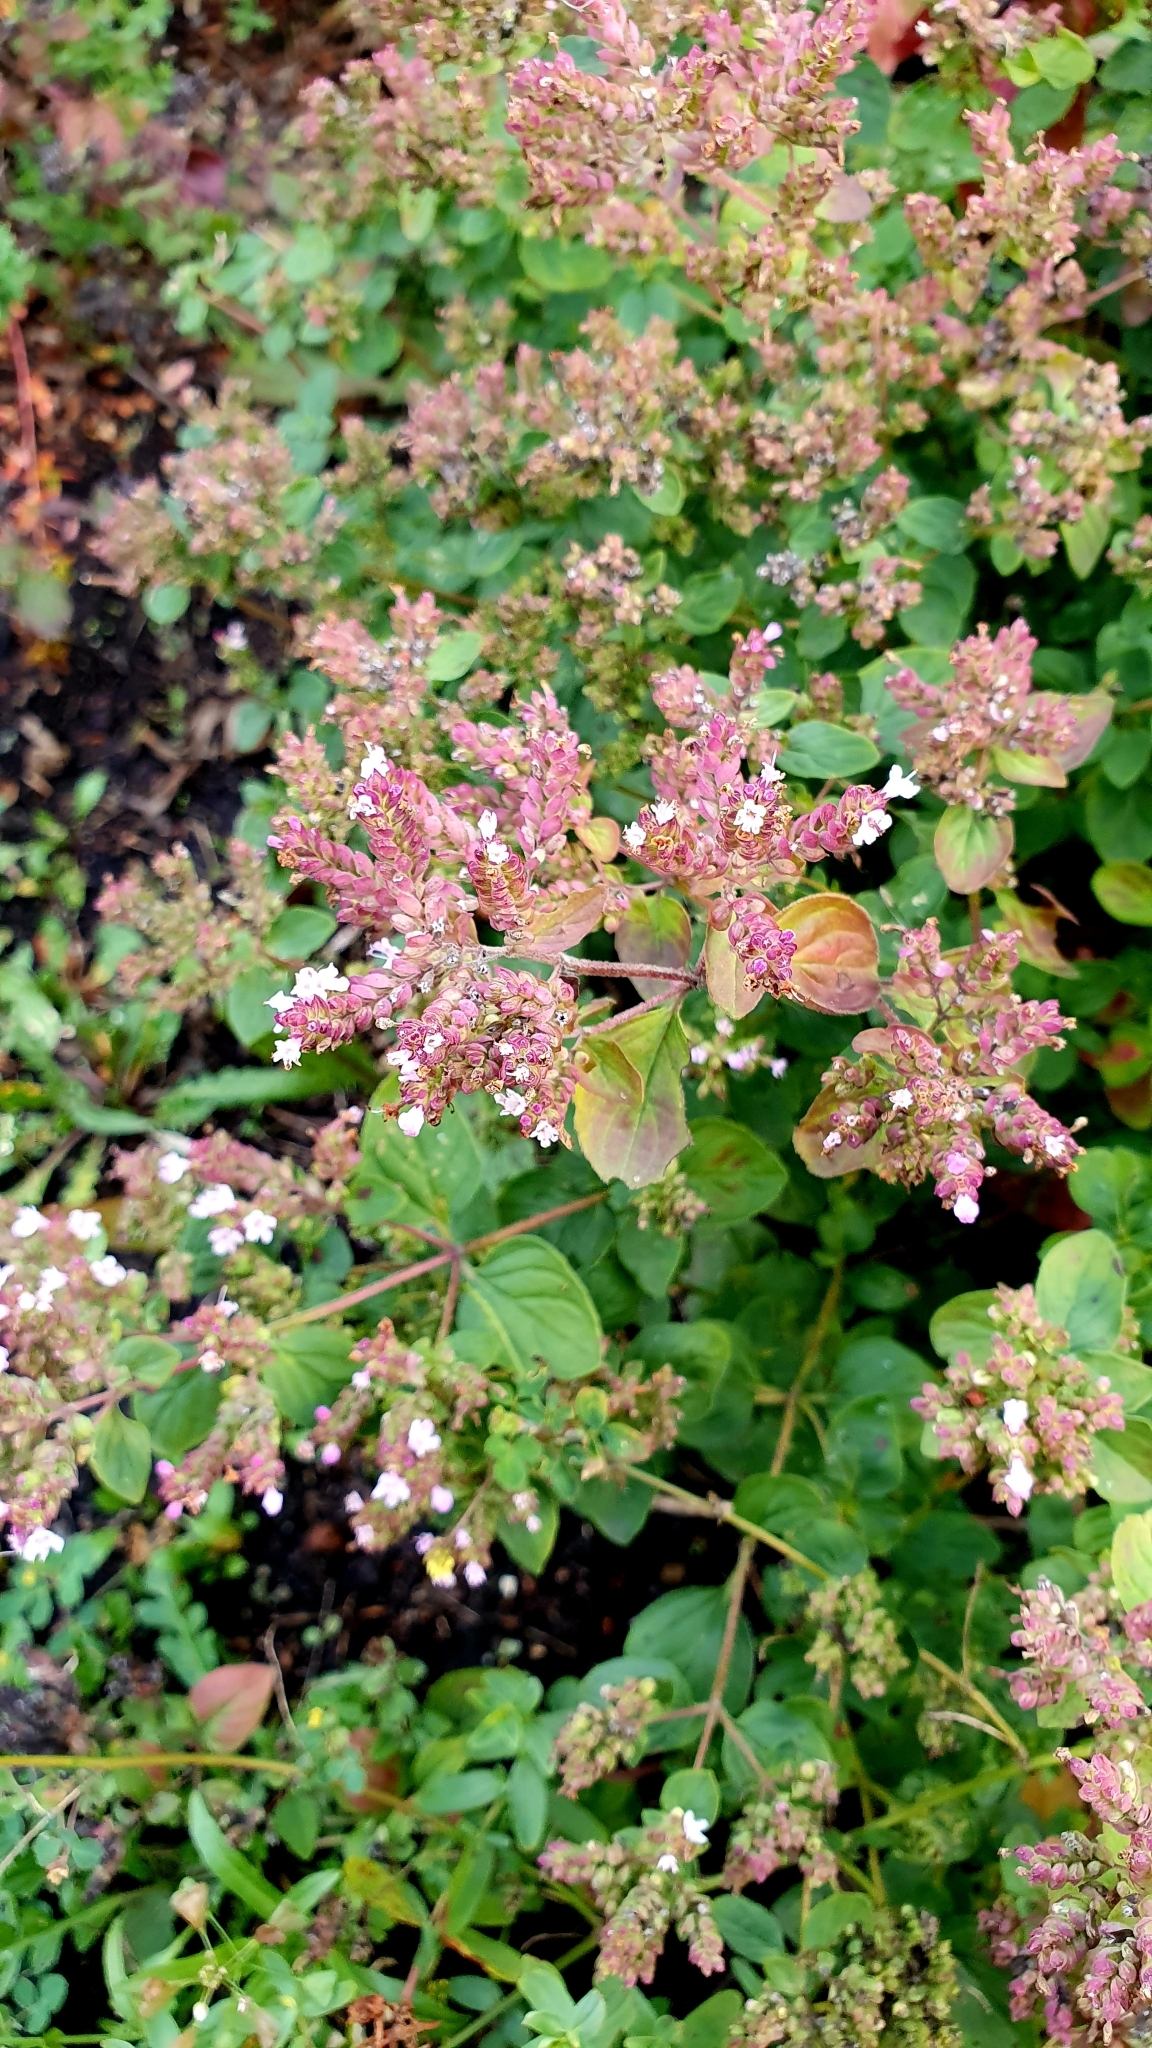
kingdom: Plantae
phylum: Tracheophyta
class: Magnoliopsida
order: Lamiales
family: Lamiaceae
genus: Origanum
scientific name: Origanum vulgare
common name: Wild marjoram
